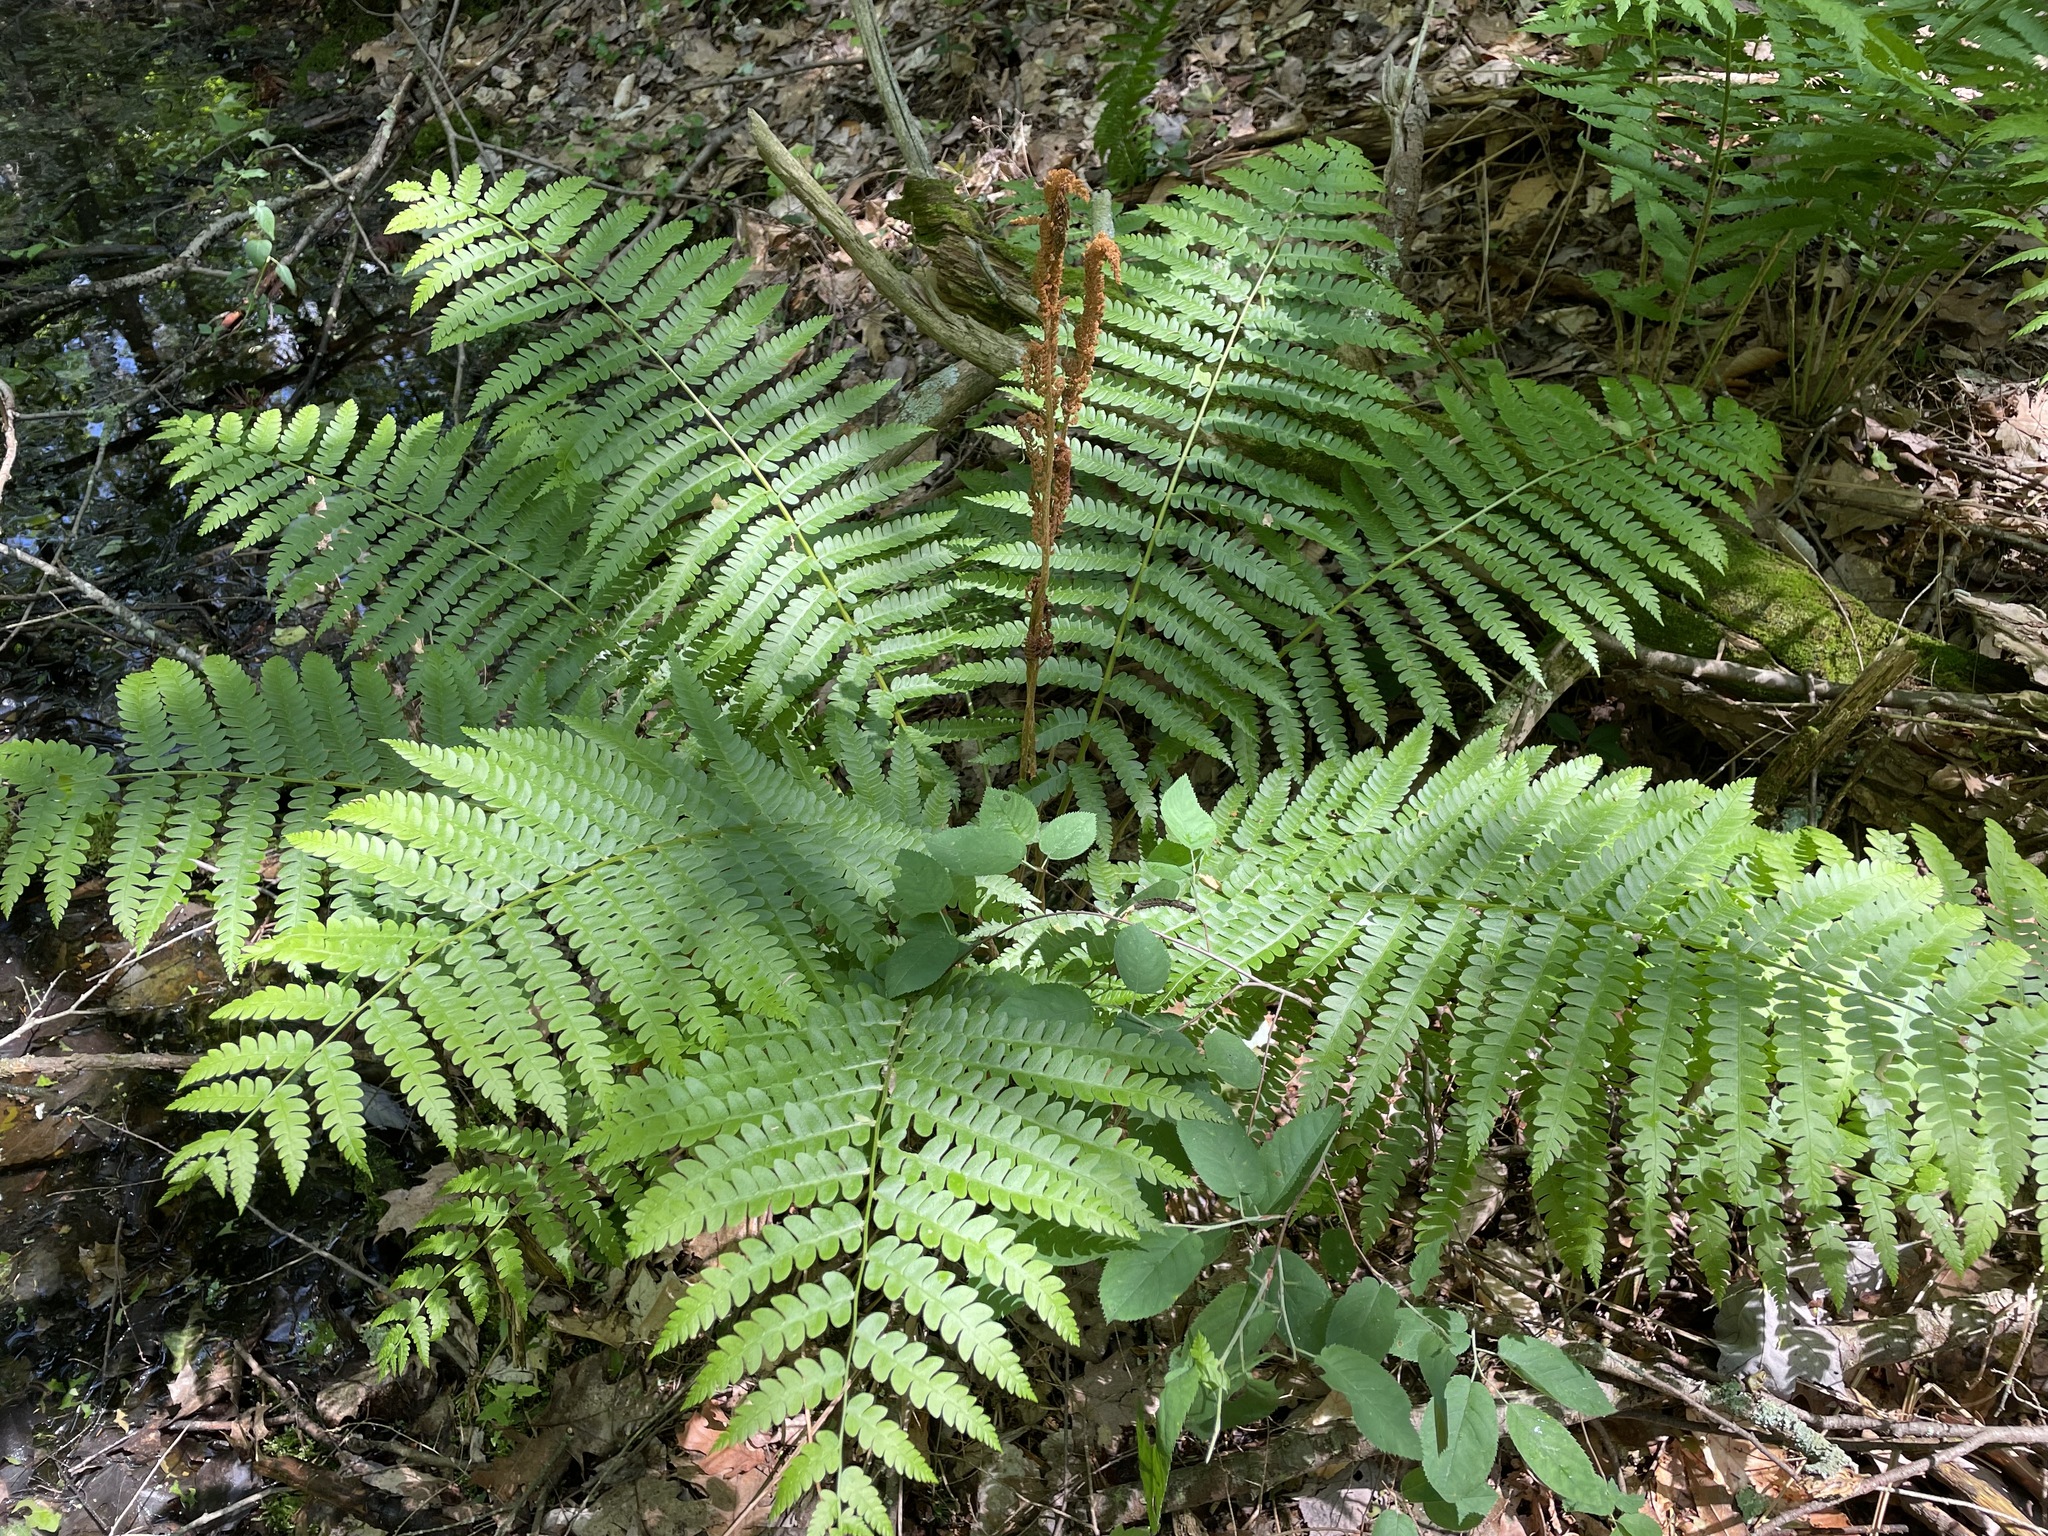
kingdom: Plantae
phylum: Tracheophyta
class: Polypodiopsida
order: Osmundales
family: Osmundaceae
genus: Osmundastrum
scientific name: Osmundastrum cinnamomeum
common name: Cinnamon fern
